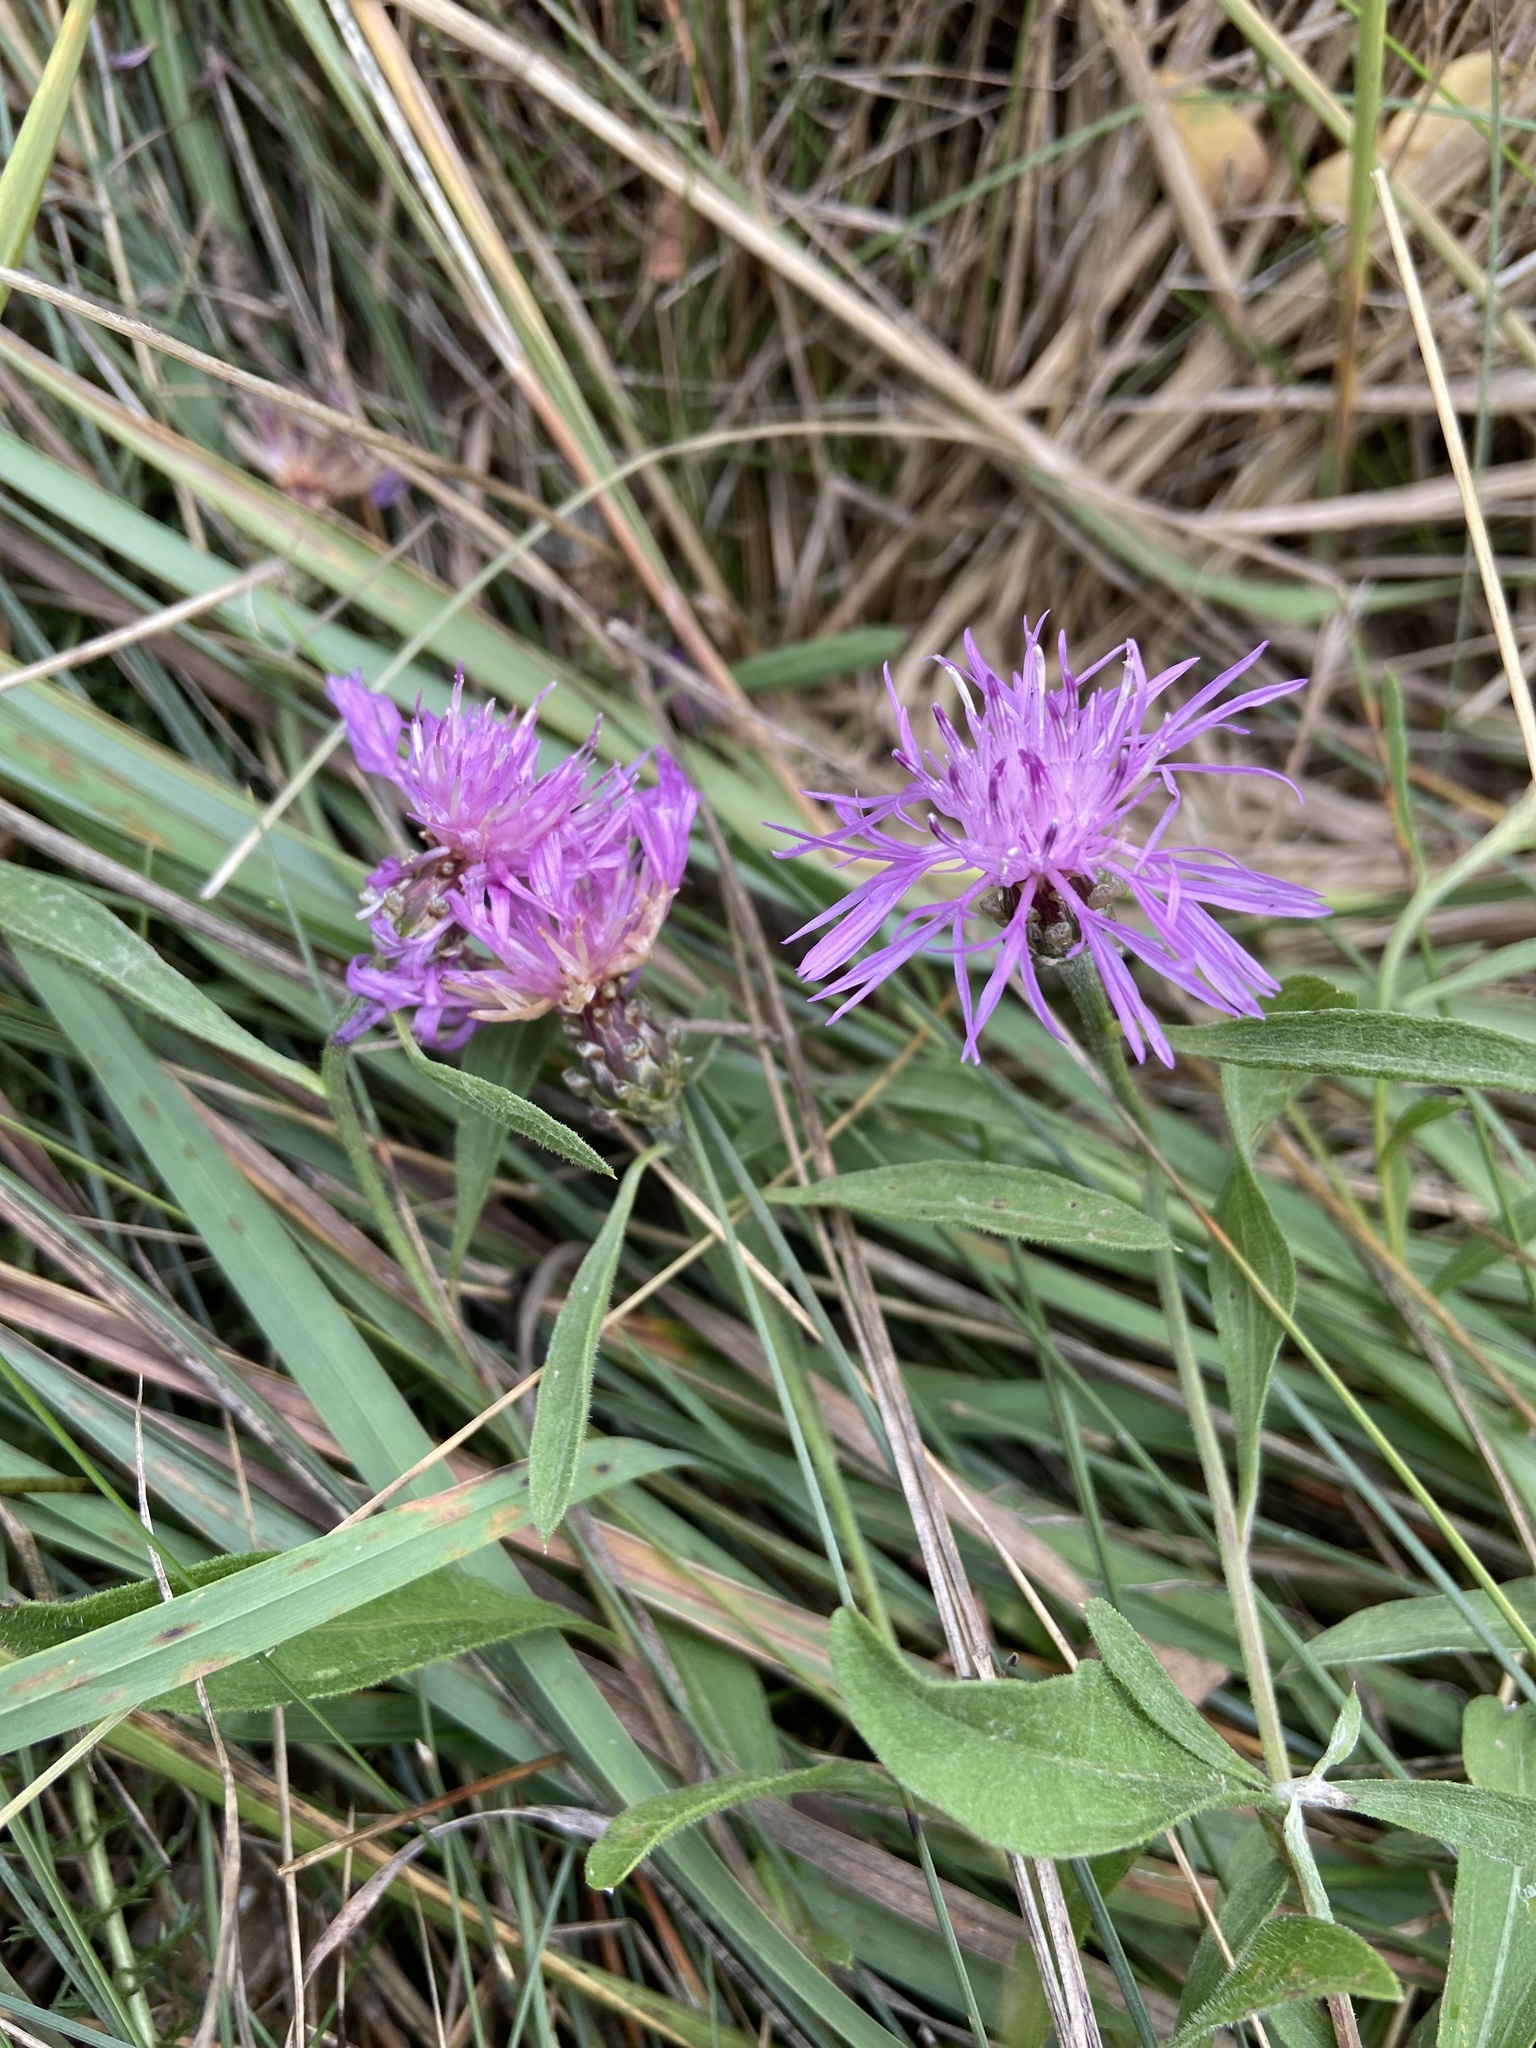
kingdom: Plantae
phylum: Tracheophyta
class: Magnoliopsida
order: Asterales
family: Asteraceae
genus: Centaurea
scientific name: Centaurea jacea
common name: Brown knapweed
